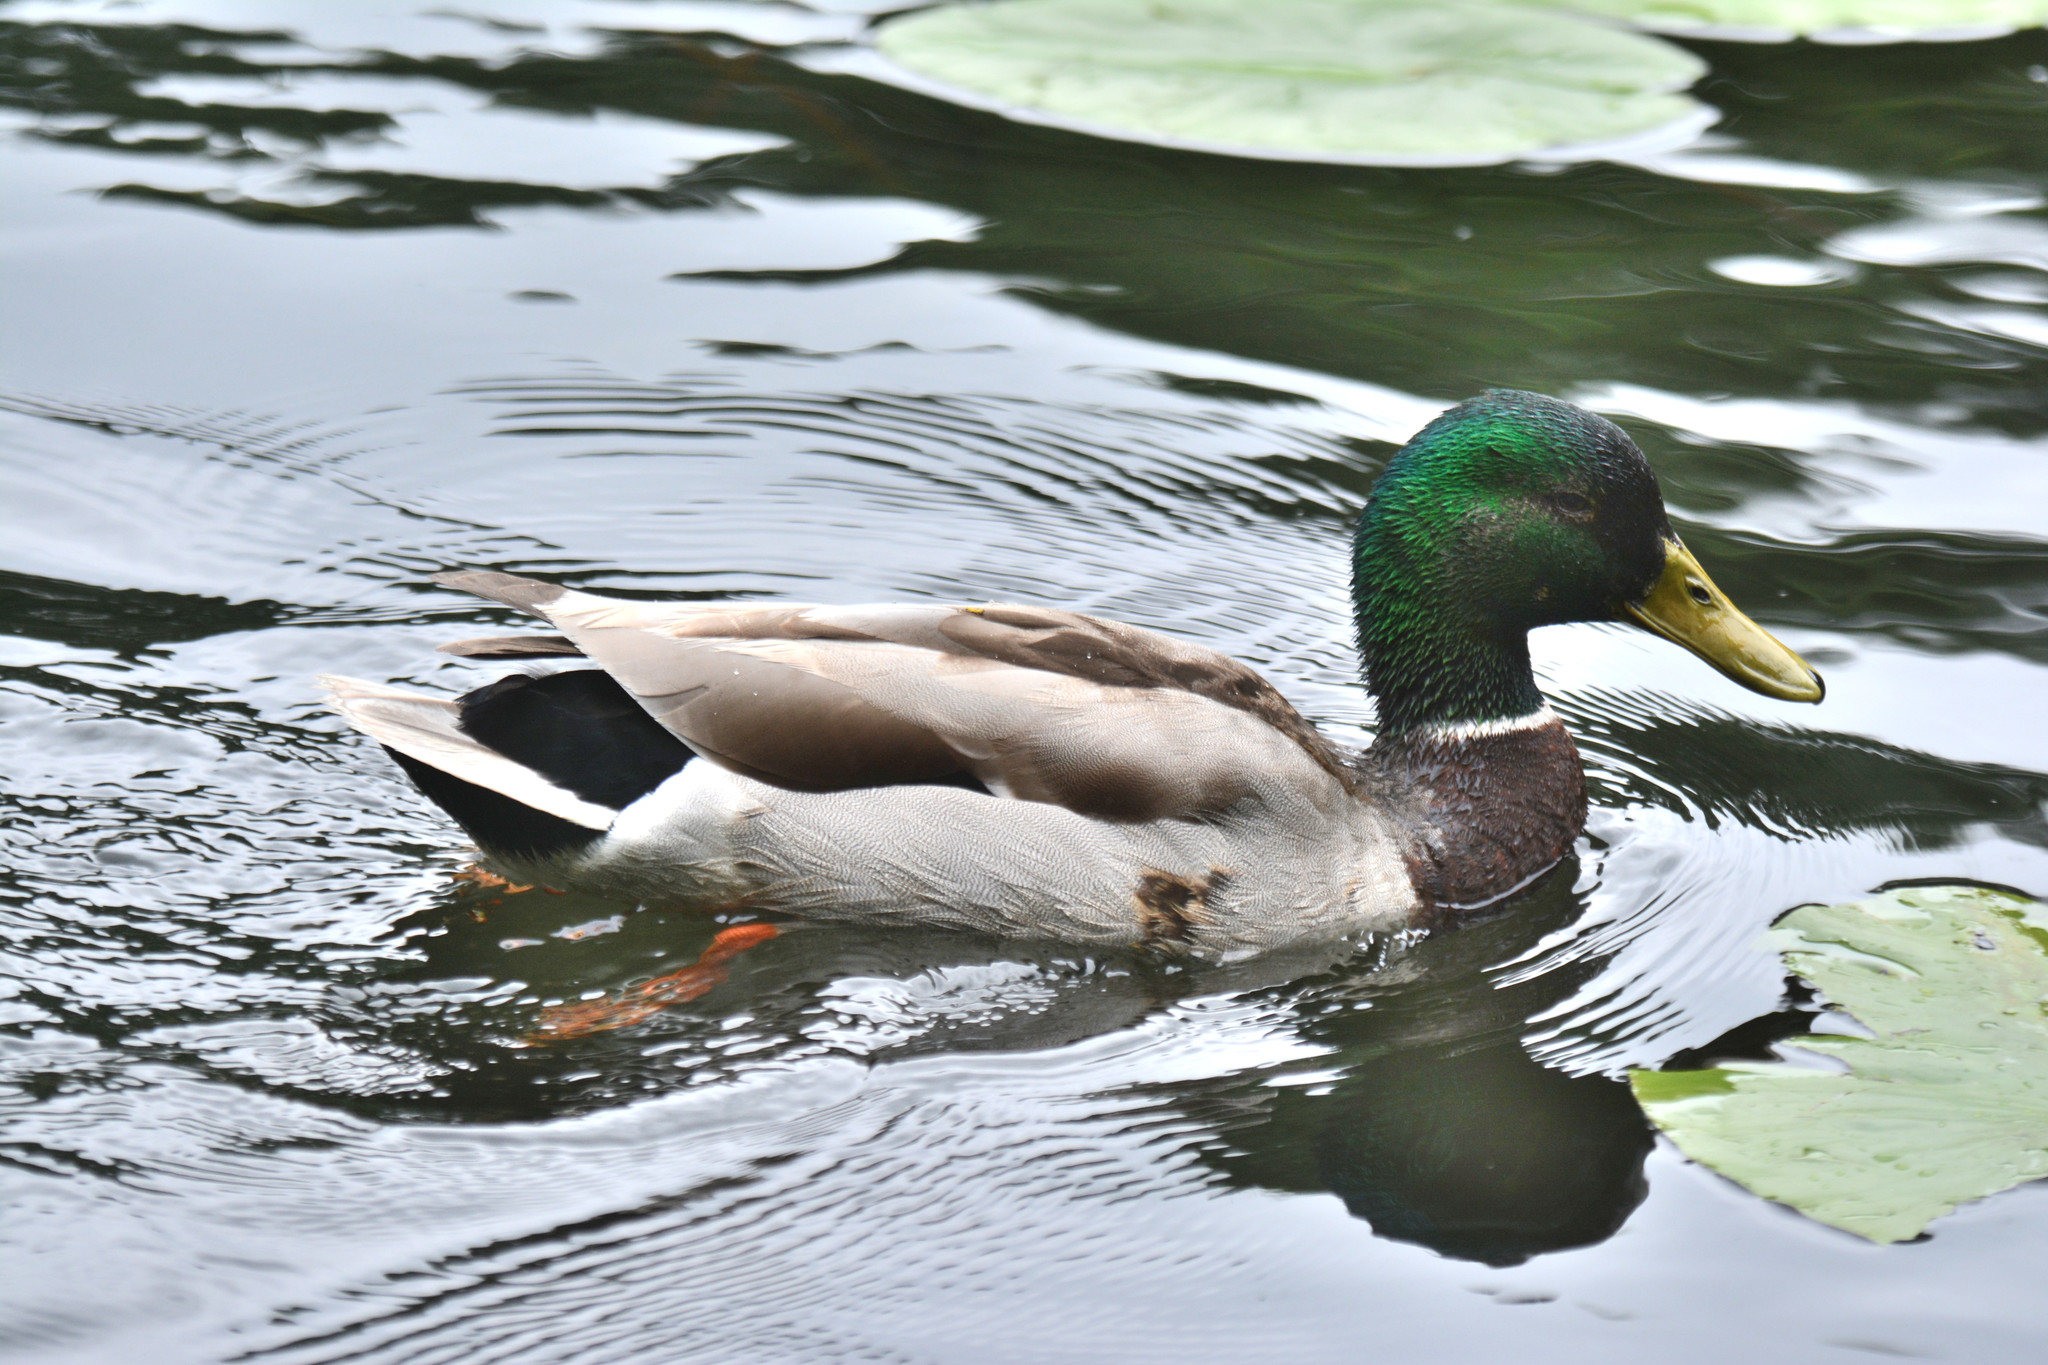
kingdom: Animalia
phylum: Chordata
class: Aves
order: Anseriformes
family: Anatidae
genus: Anas
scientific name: Anas platyrhynchos
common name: Mallard
